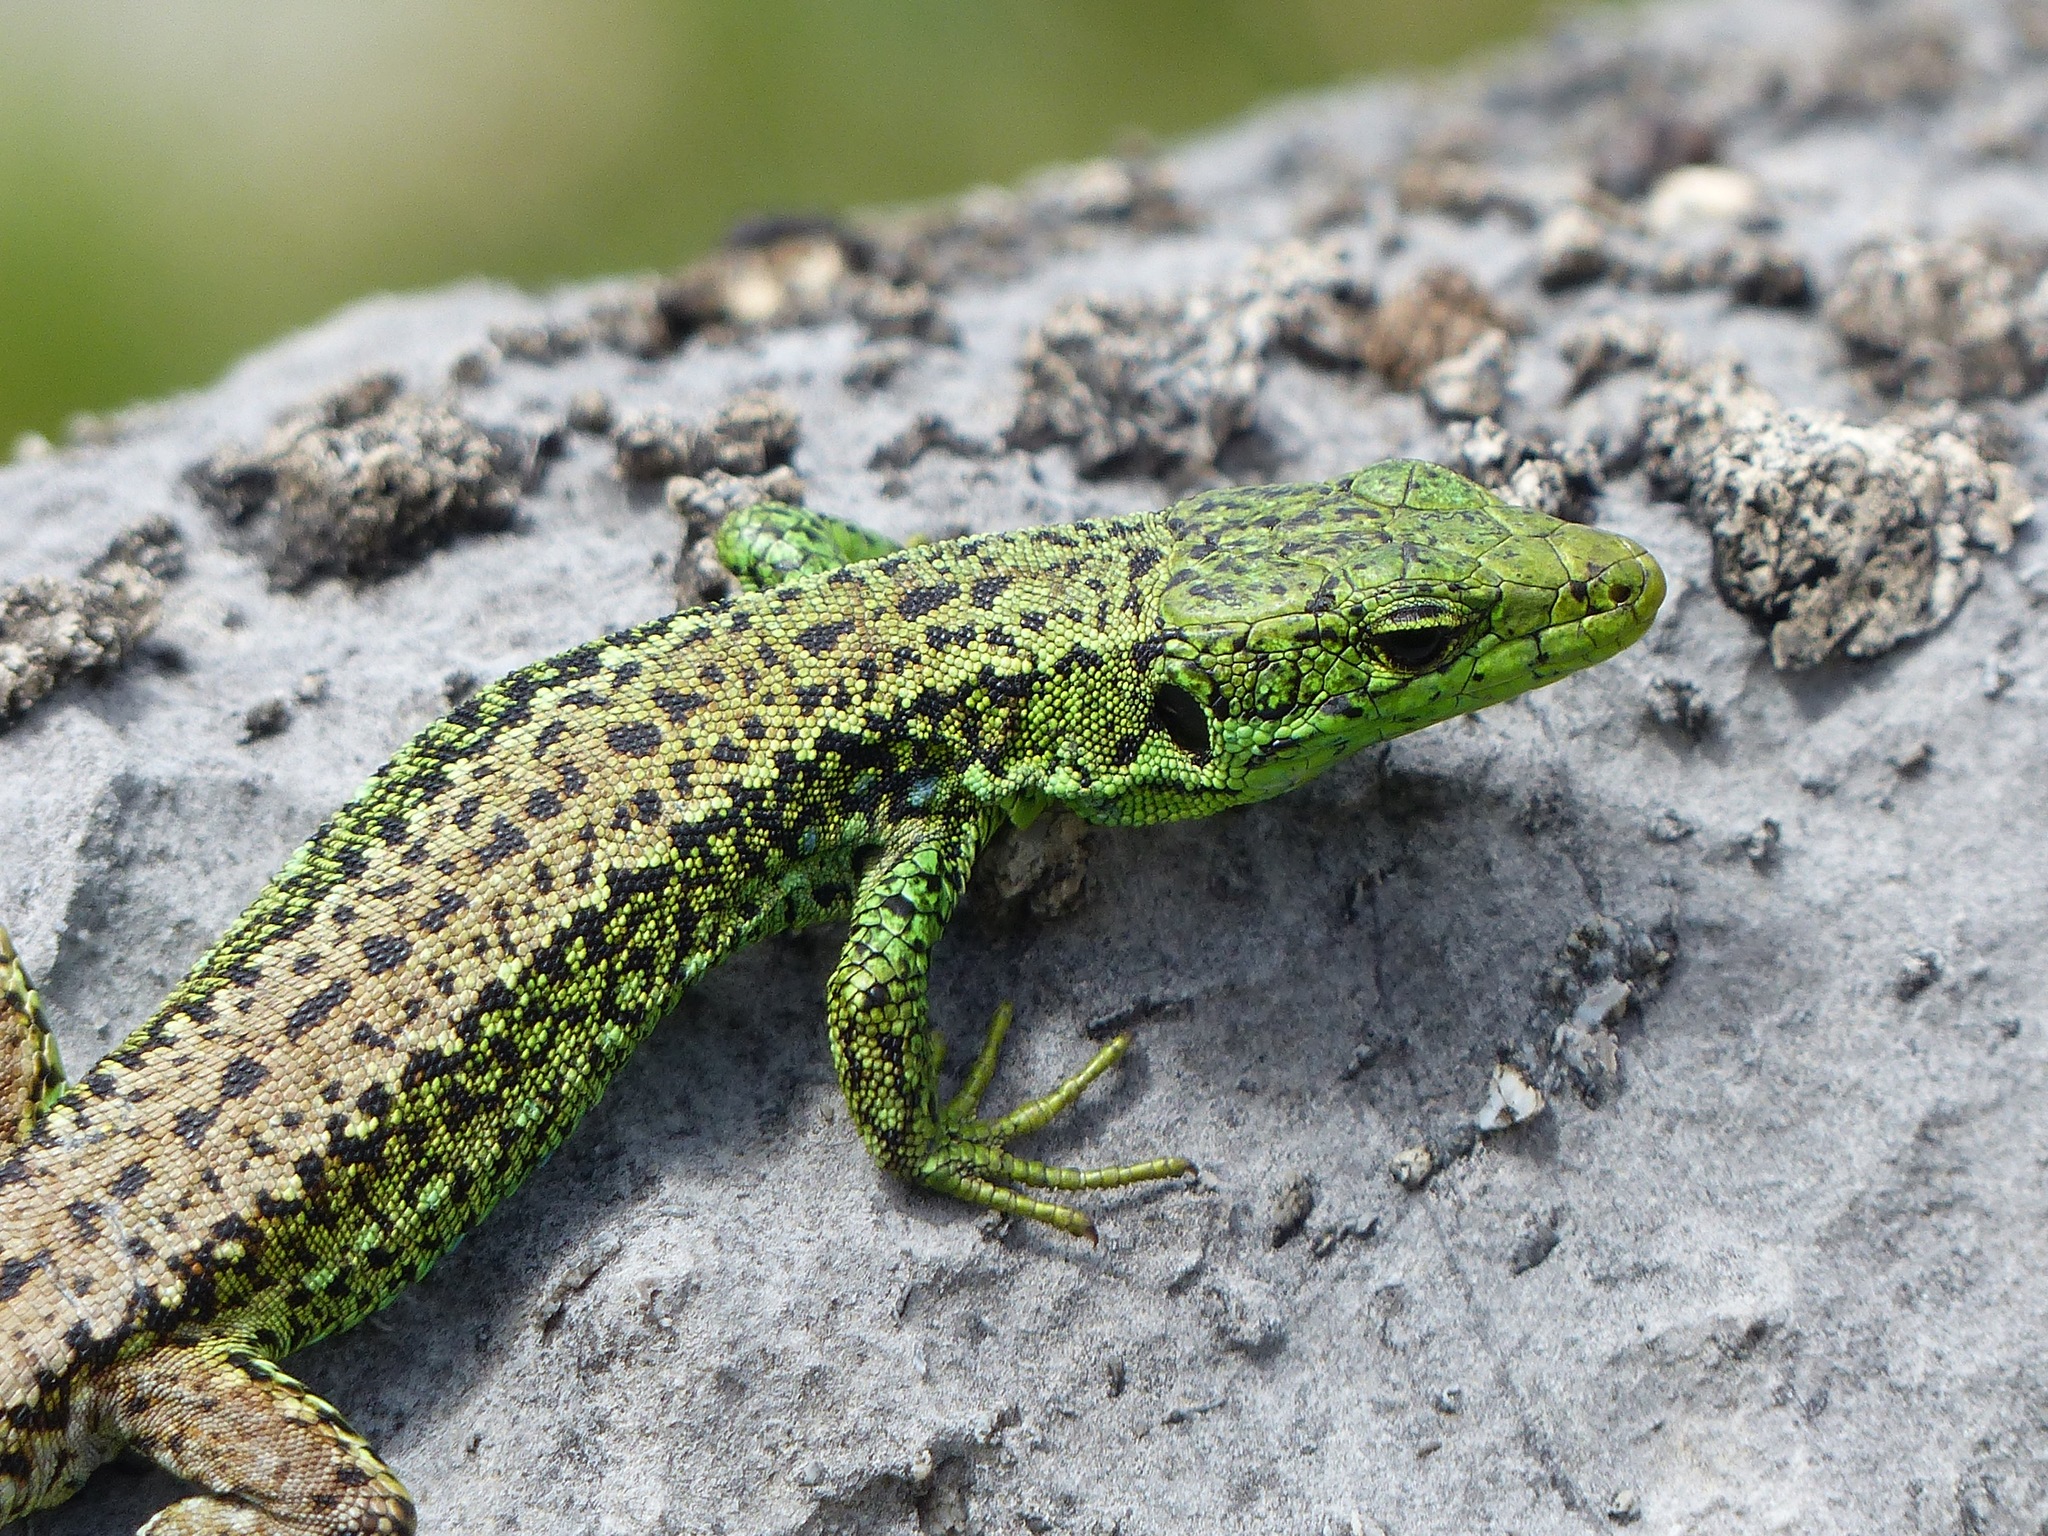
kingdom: Animalia
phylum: Chordata
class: Squamata
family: Lacertidae
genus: Iberolacerta
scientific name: Iberolacerta monticola
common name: Iberian mountain lizard
